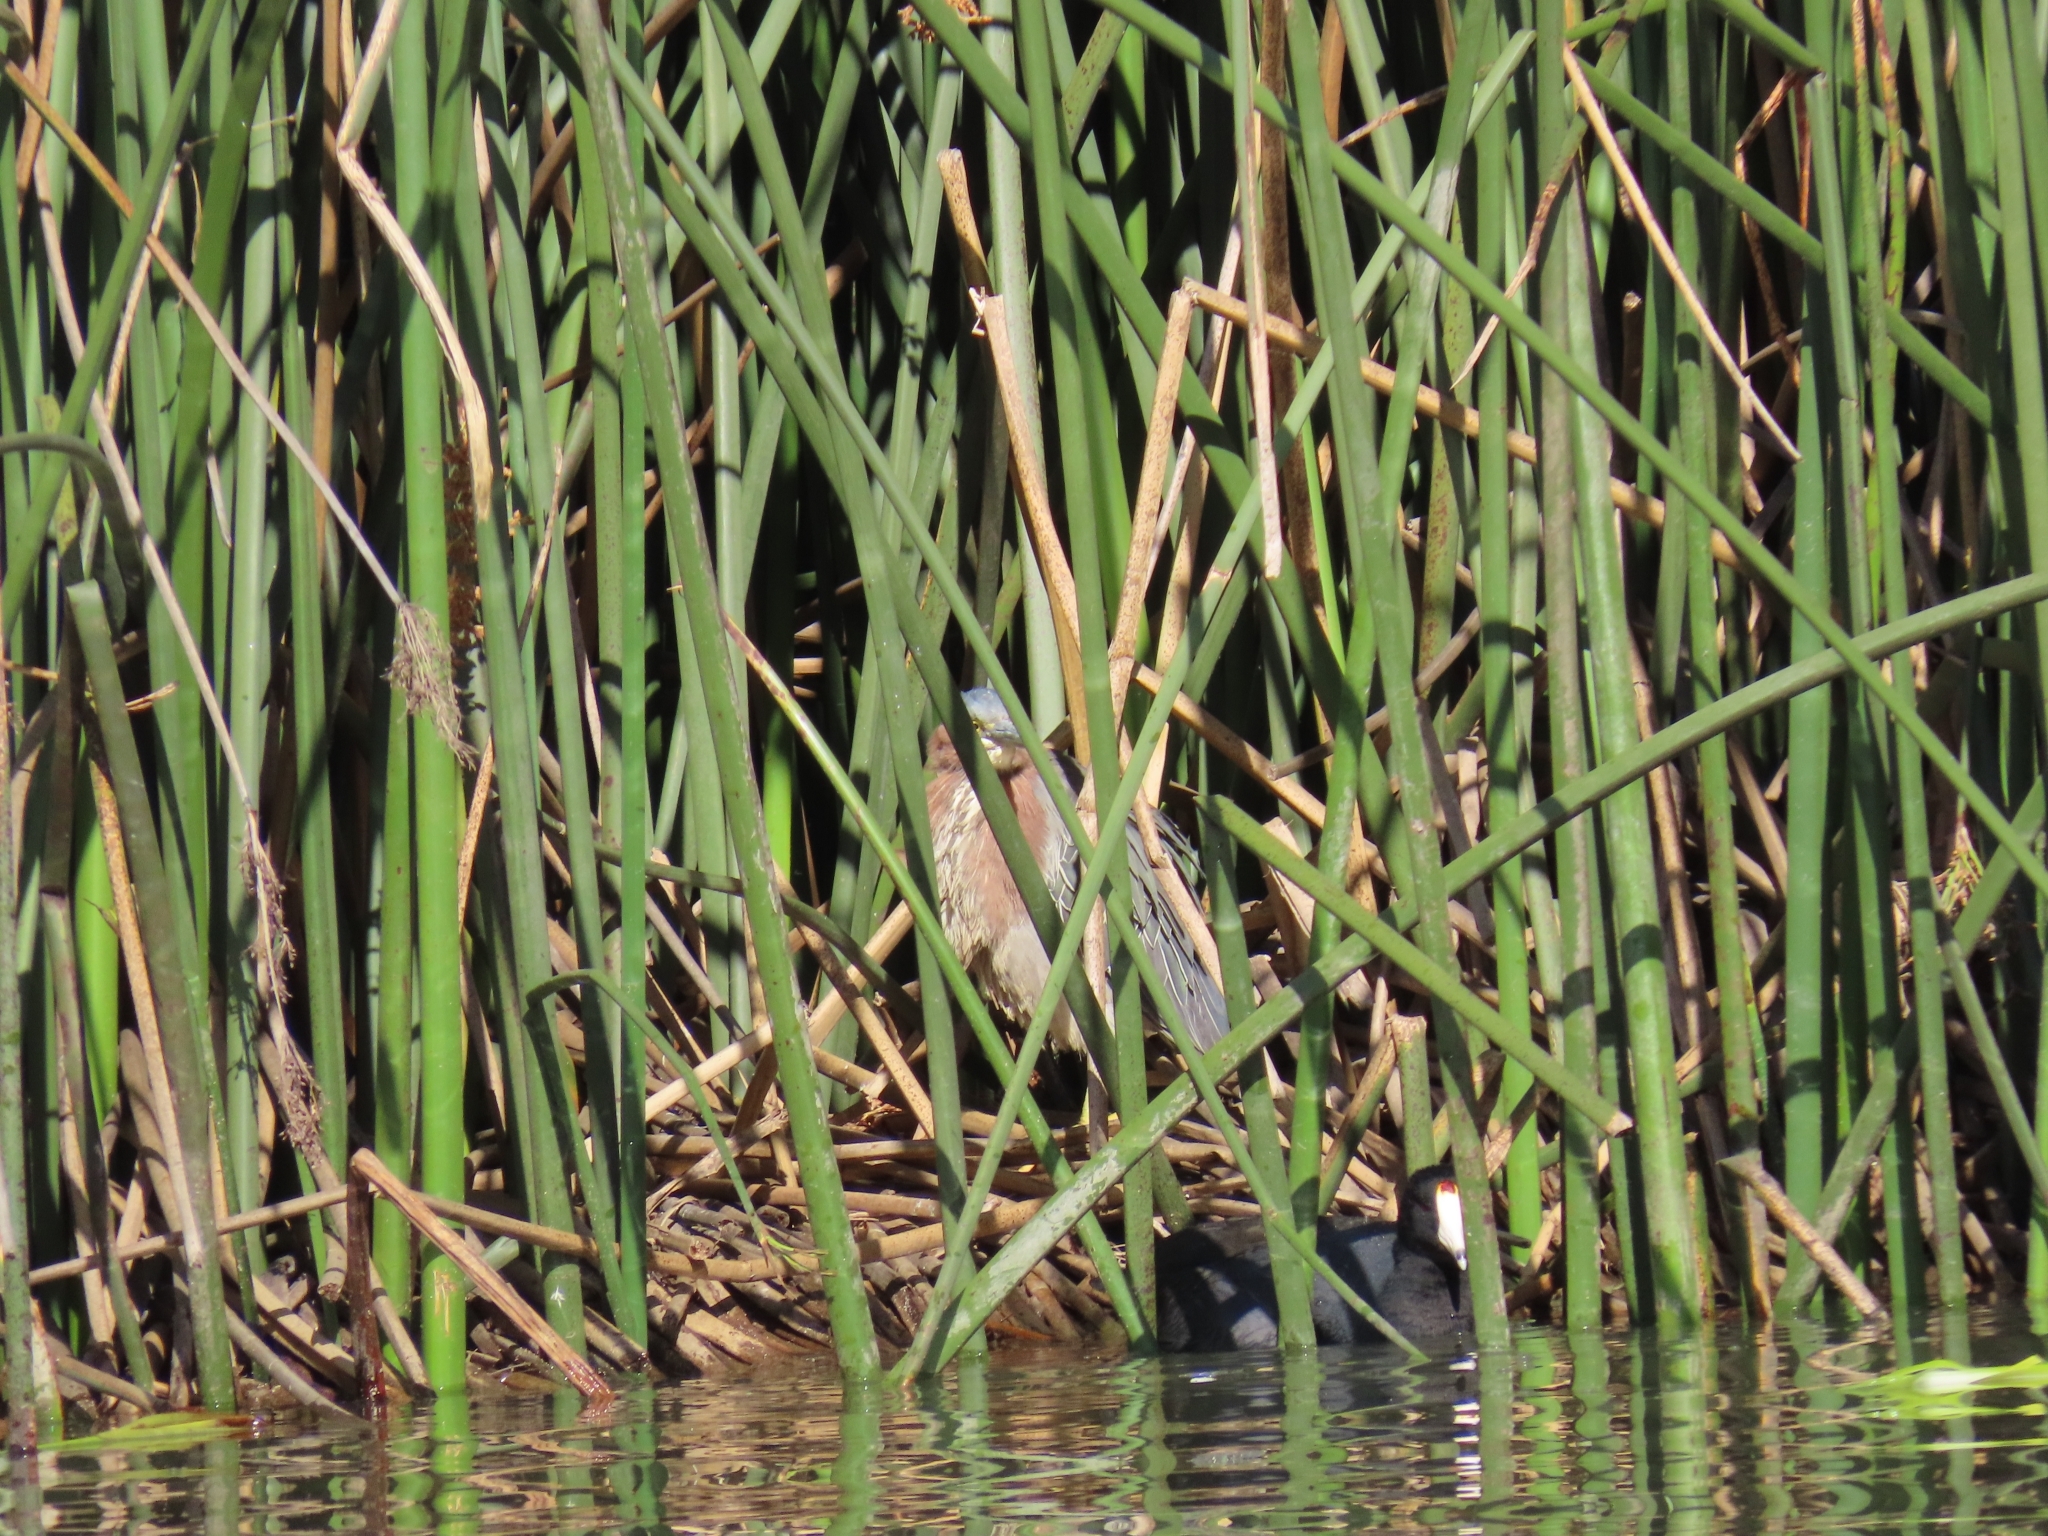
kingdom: Animalia
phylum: Chordata
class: Aves
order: Pelecaniformes
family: Ardeidae
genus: Butorides
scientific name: Butorides virescens
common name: Green heron
